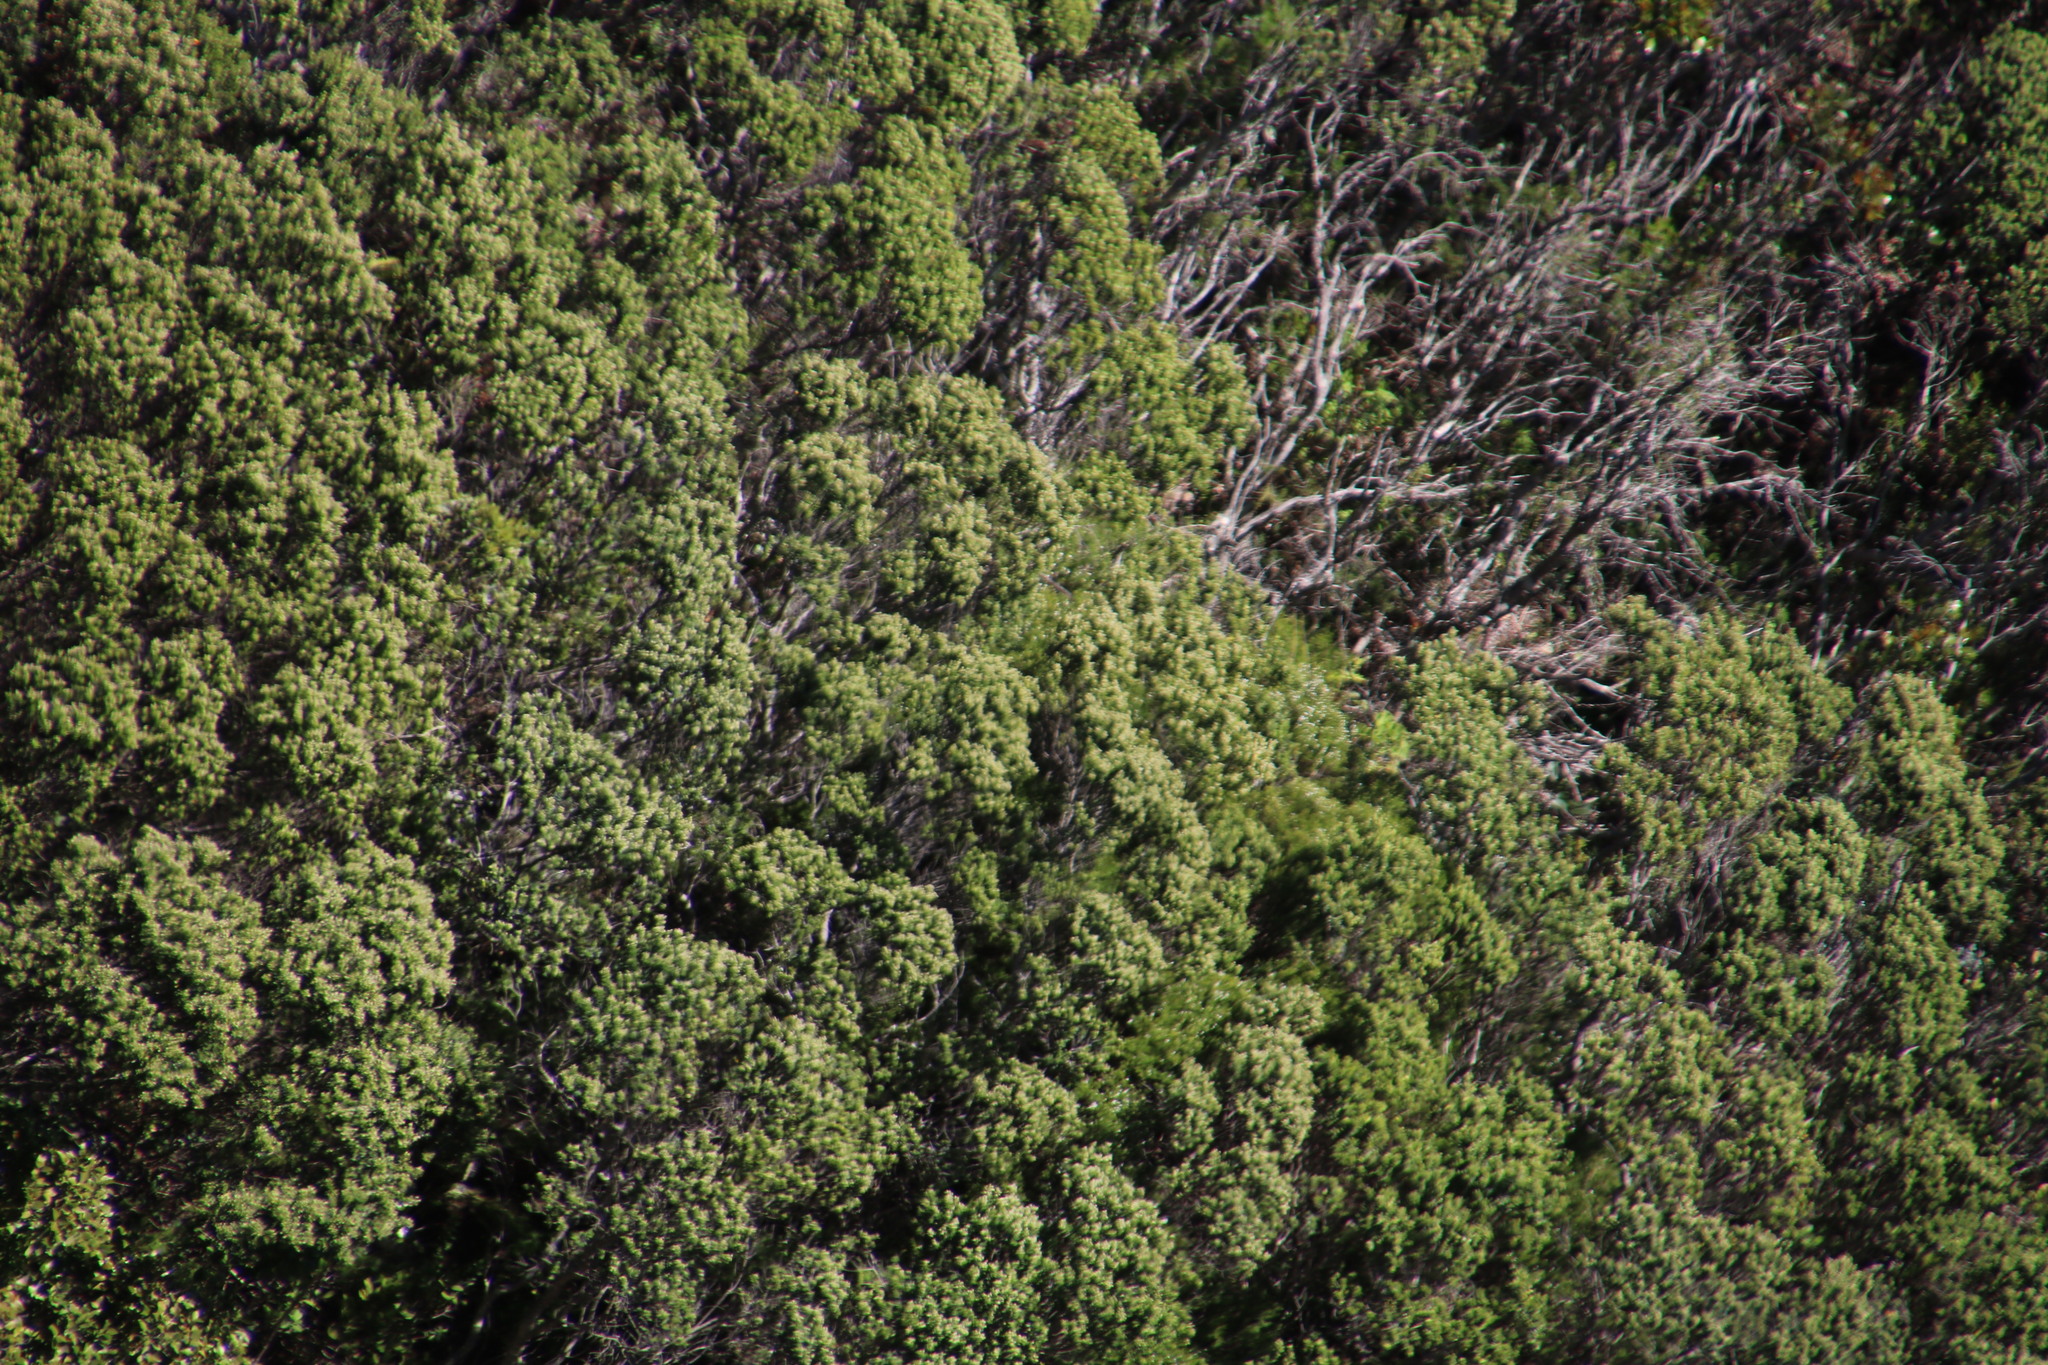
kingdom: Plantae
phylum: Tracheophyta
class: Magnoliopsida
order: Rosales
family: Rhamnaceae
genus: Phylica
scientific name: Phylica buxifolia
